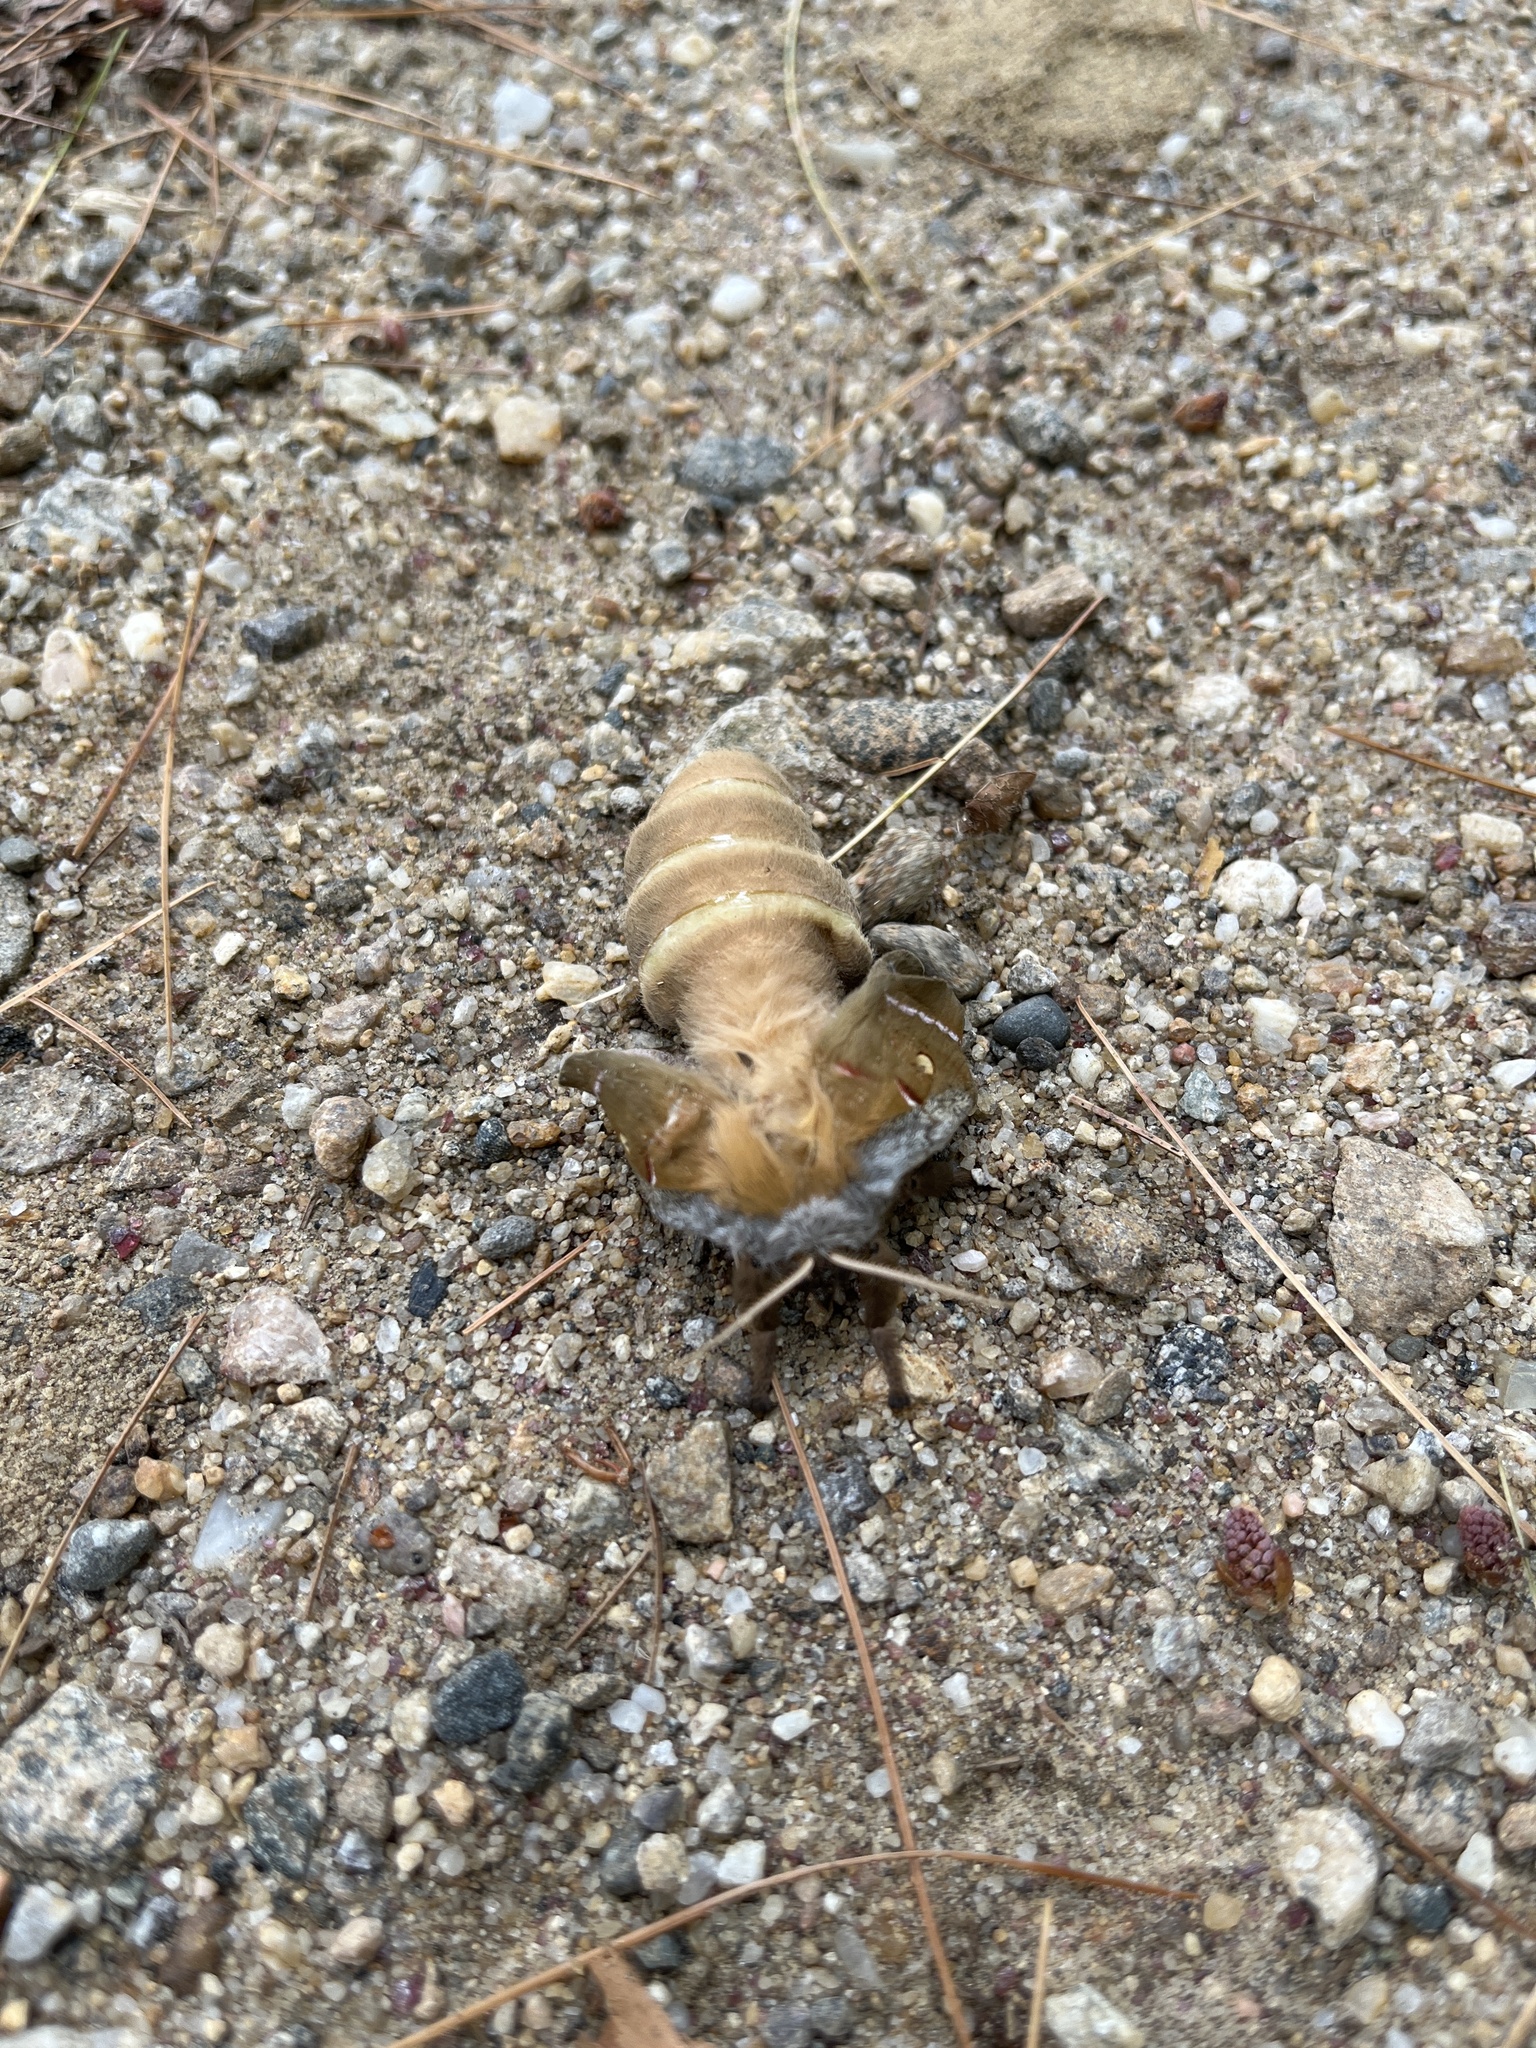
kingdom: Animalia
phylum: Arthropoda
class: Insecta
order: Lepidoptera
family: Saturniidae
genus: Antheraea
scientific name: Antheraea polyphemus
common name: Polyphemus moth
